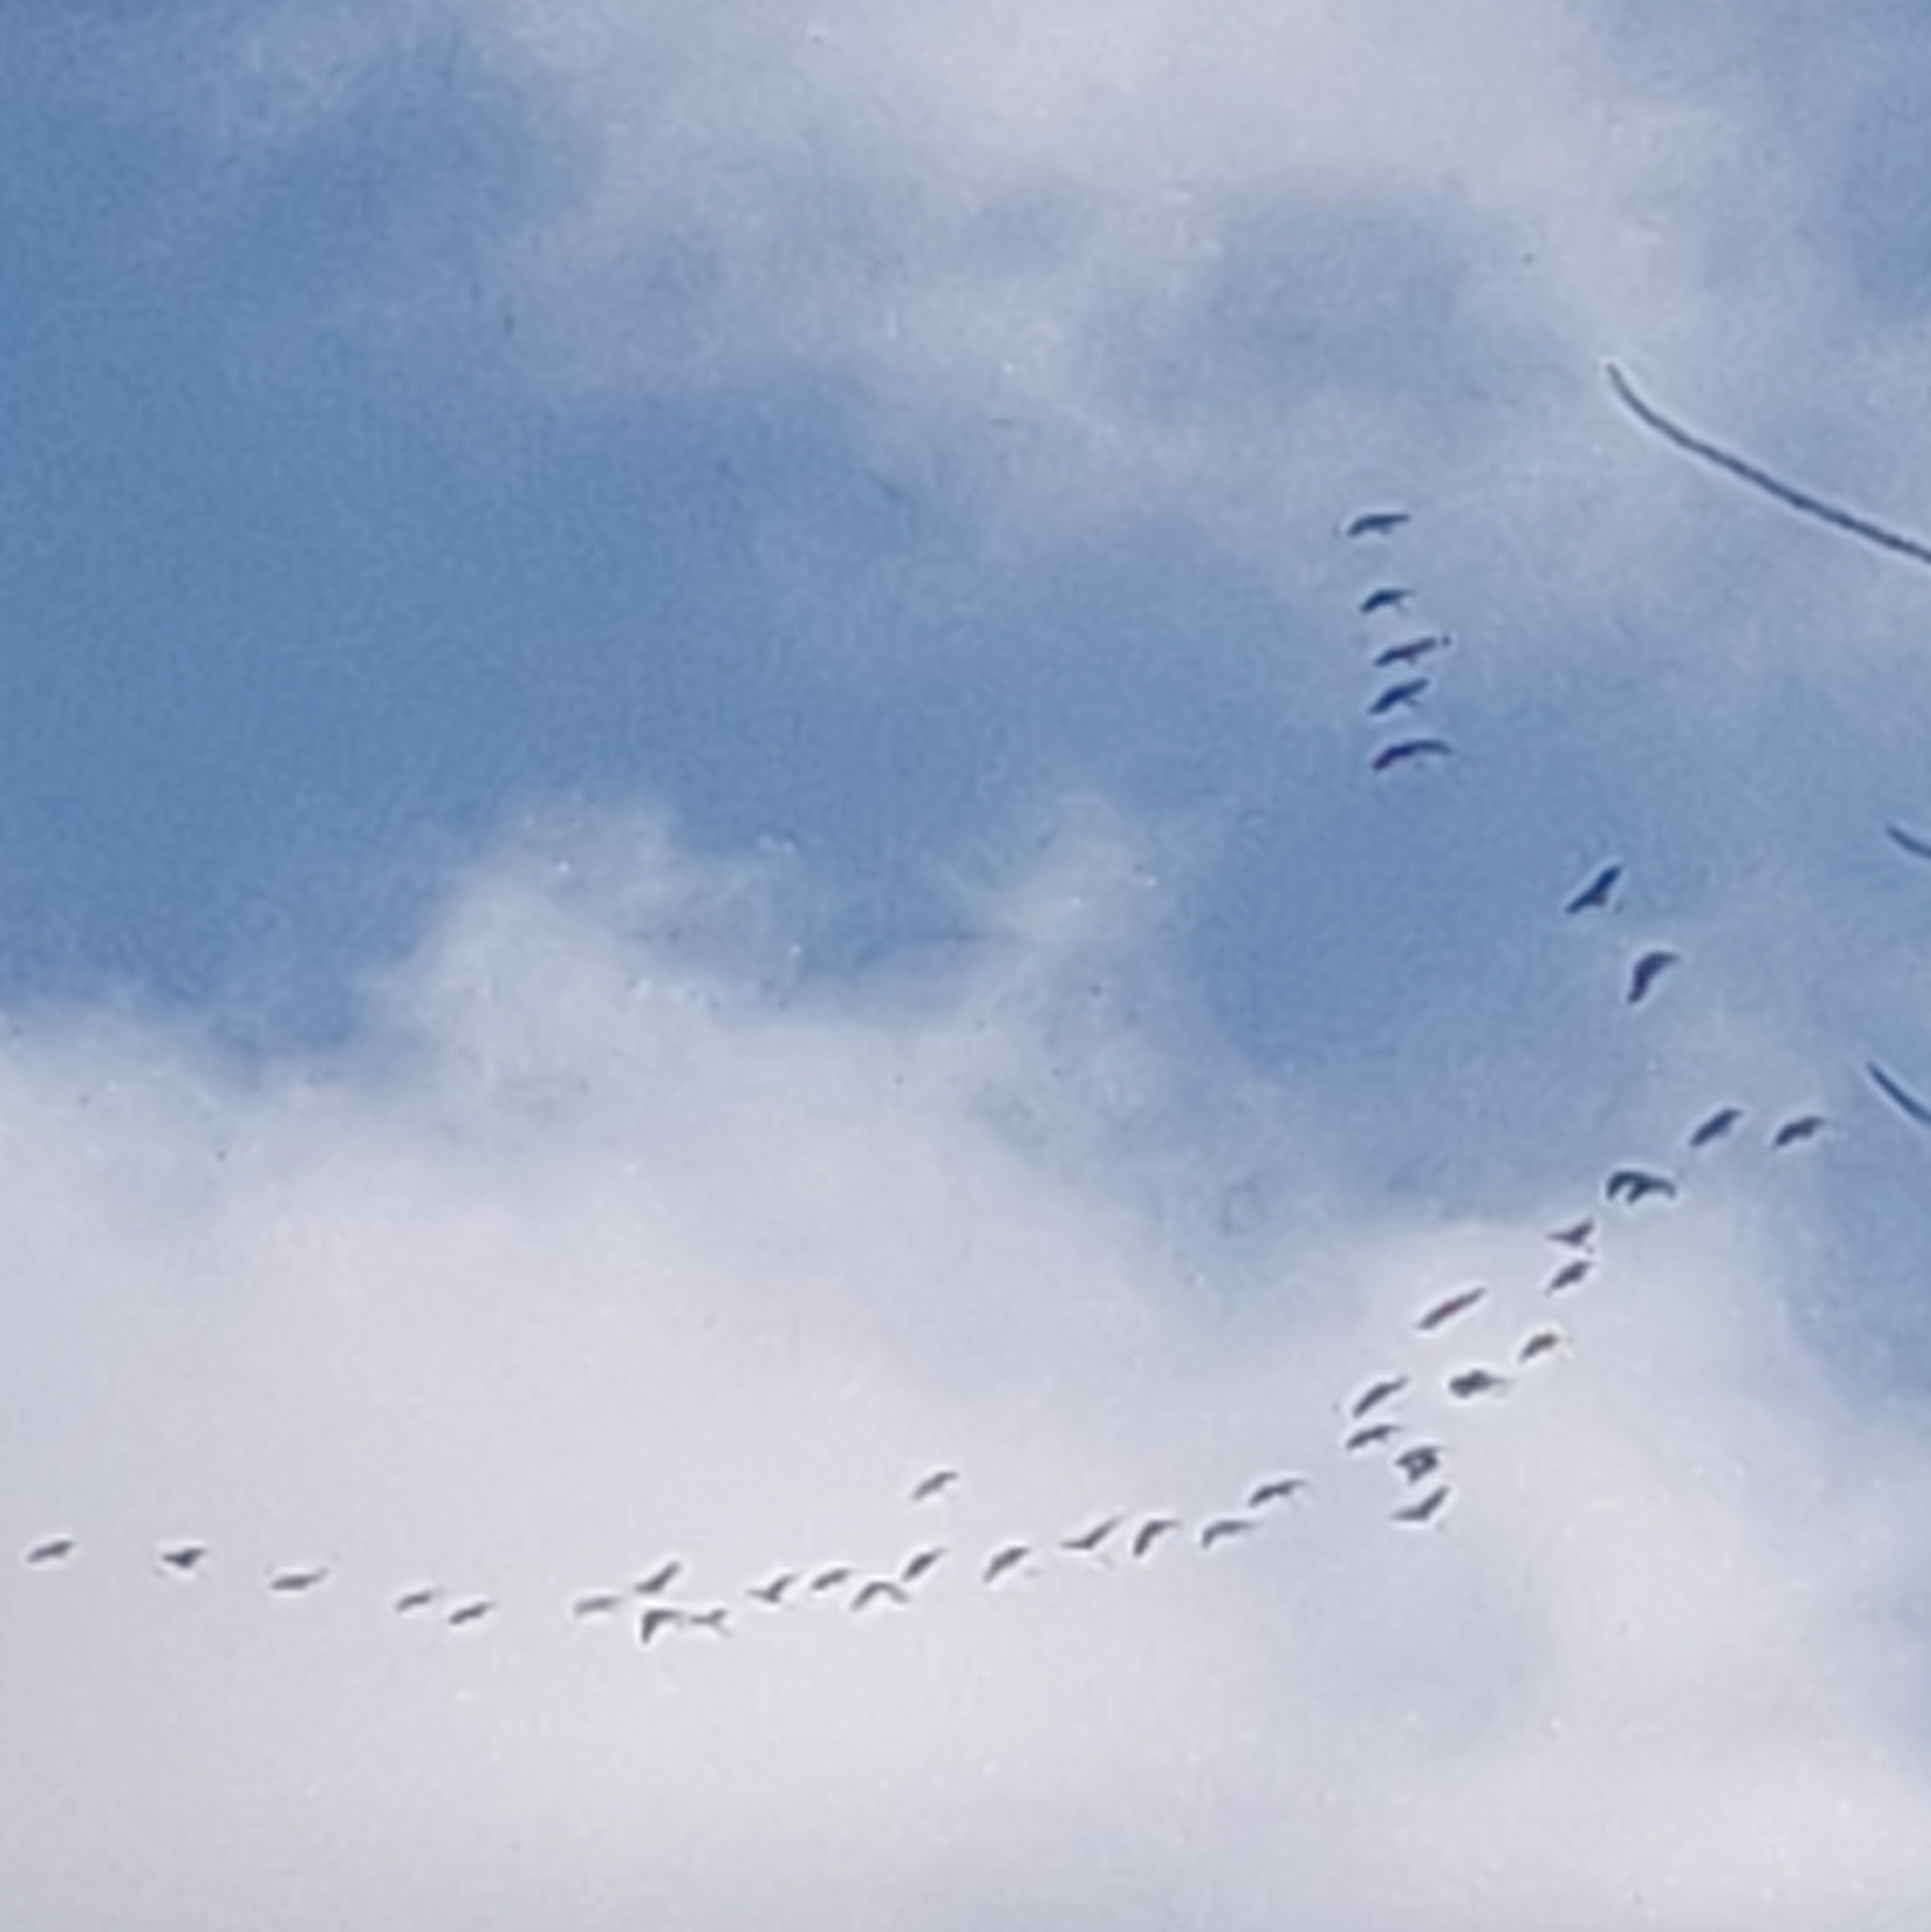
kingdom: Animalia
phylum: Chordata
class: Aves
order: Gruiformes
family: Gruidae
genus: Grus
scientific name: Grus canadensis
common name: Sandhill crane
